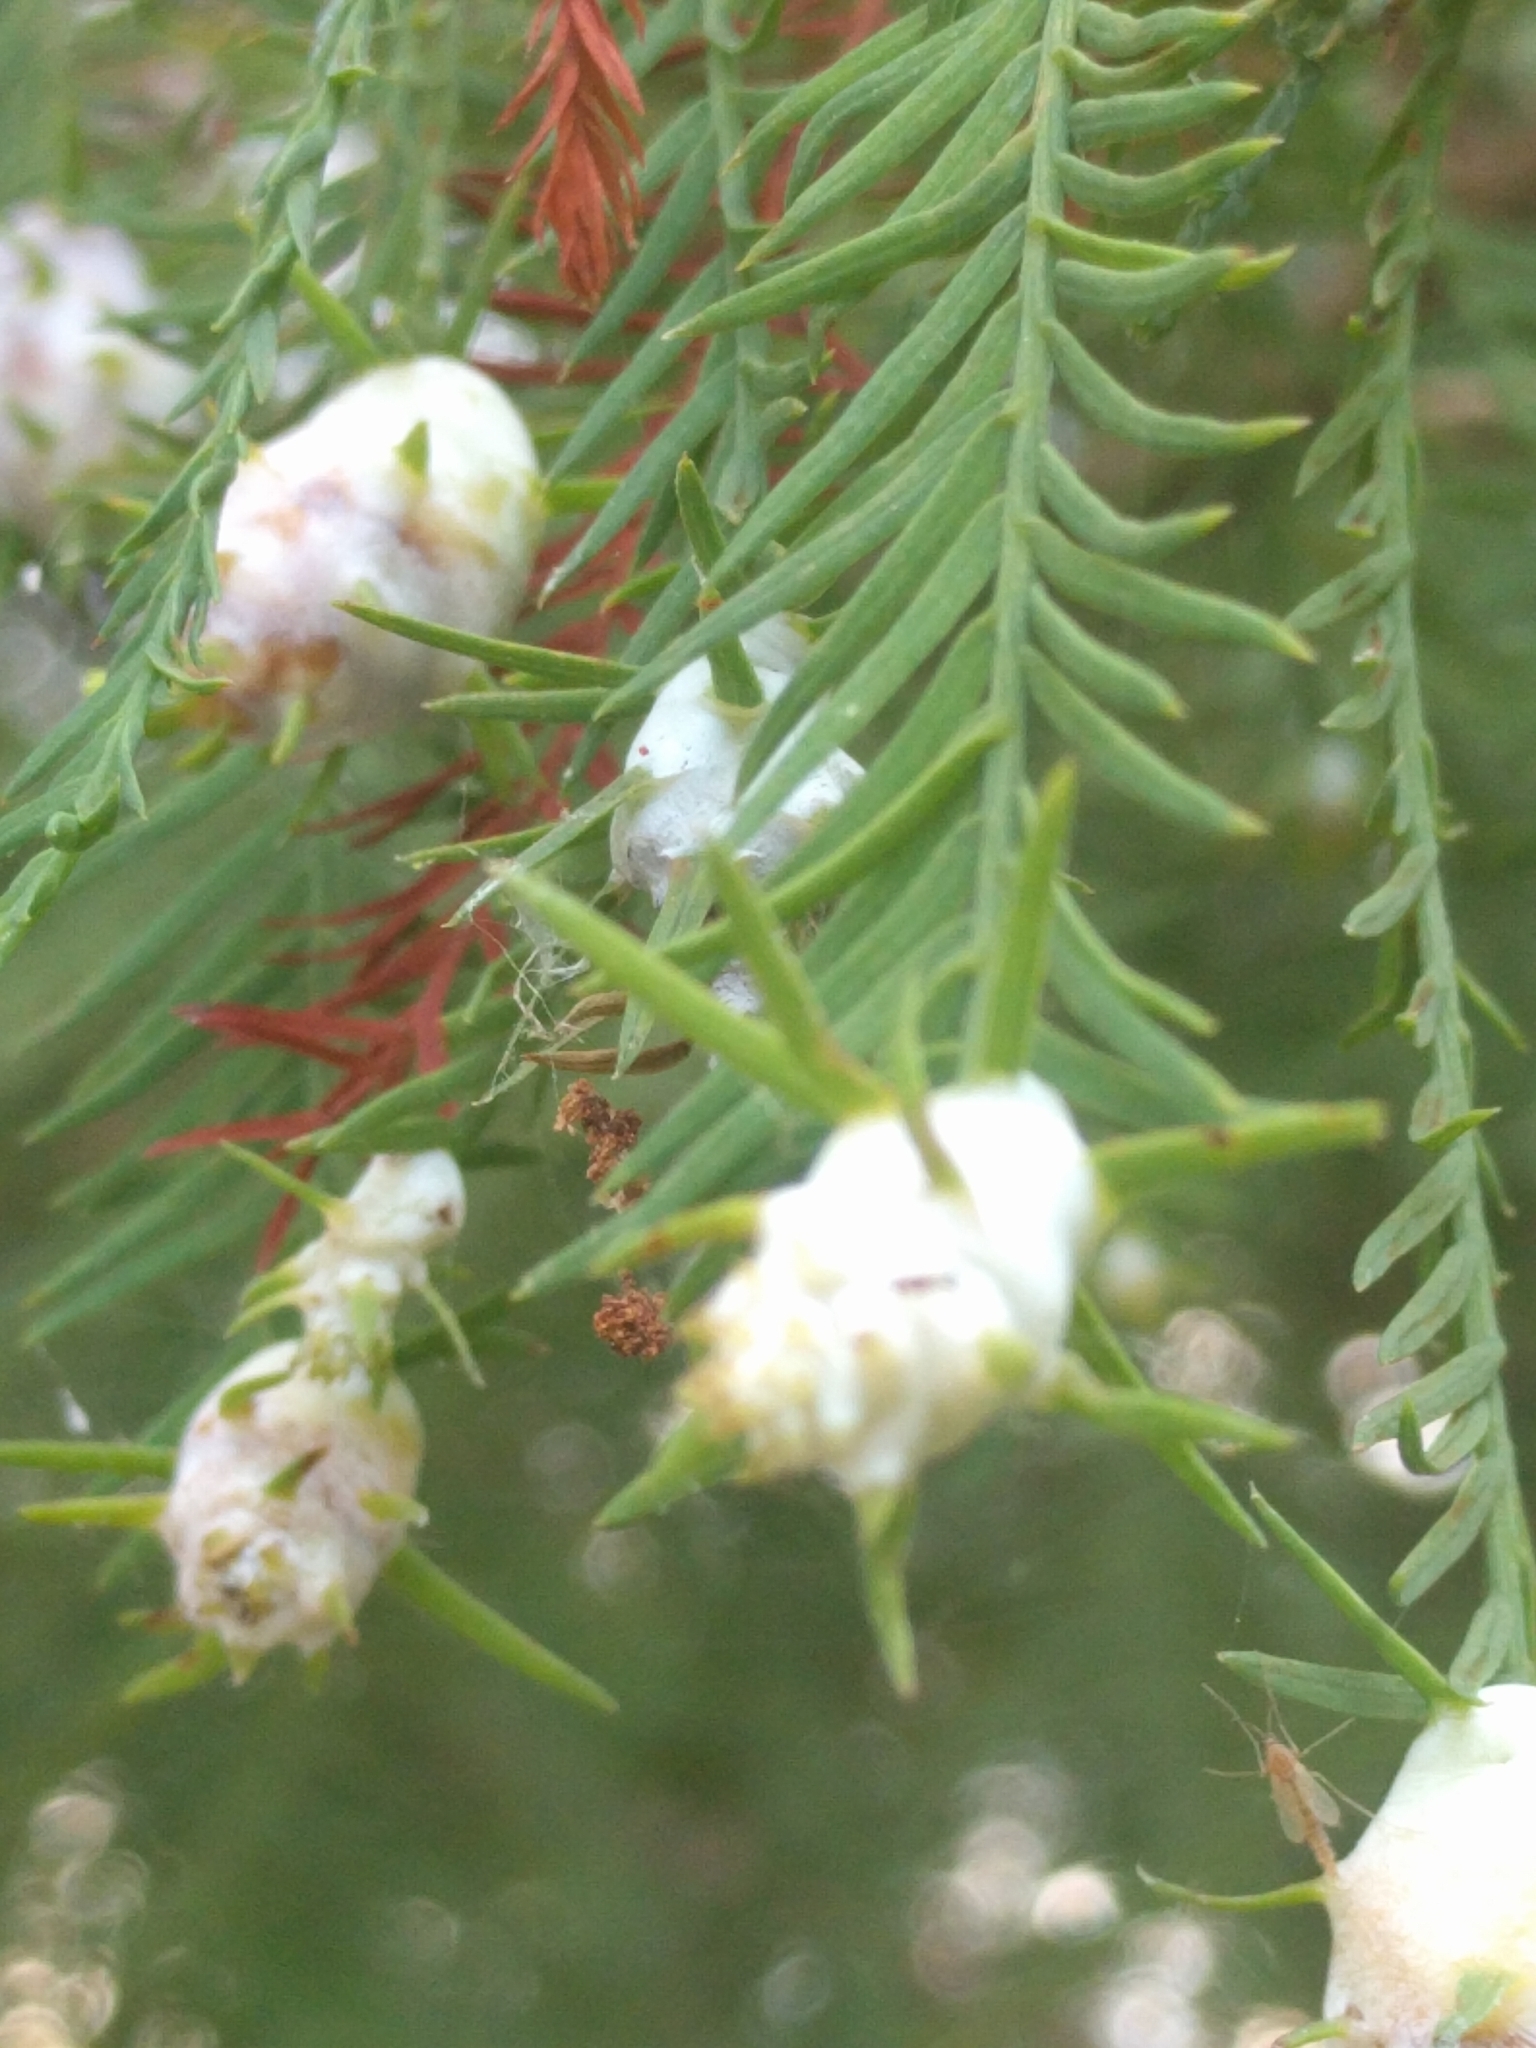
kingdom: Animalia
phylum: Arthropoda
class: Insecta
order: Diptera
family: Cecidomyiidae
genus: Taxodiomyia
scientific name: Taxodiomyia cupressiananassa
